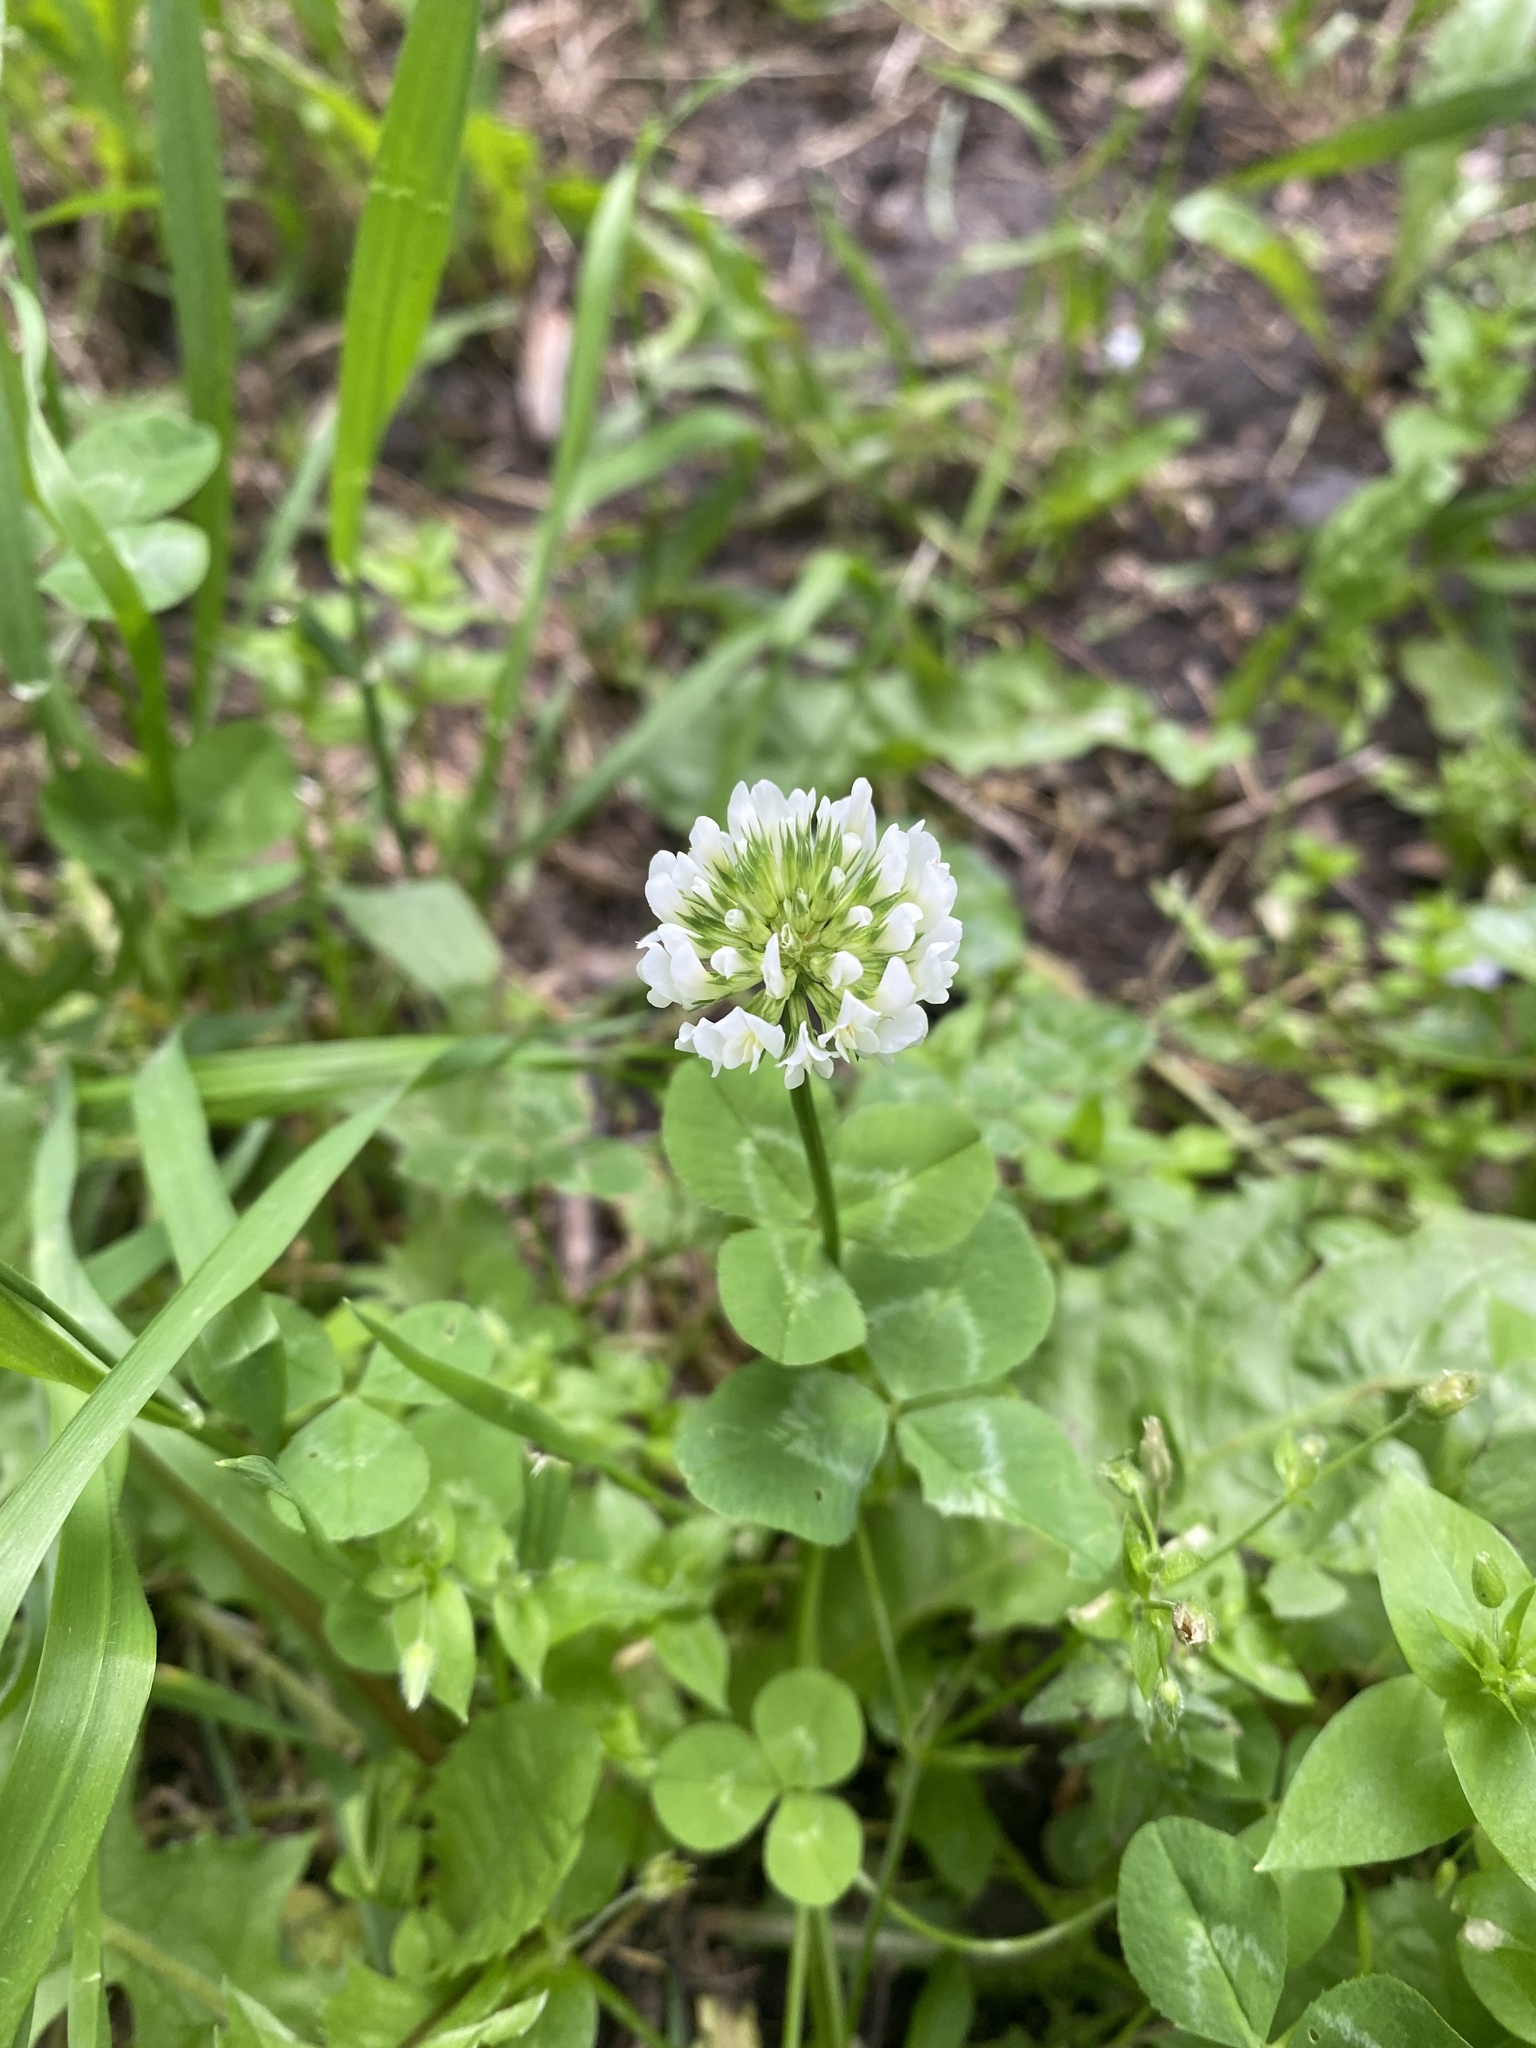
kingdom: Plantae
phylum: Tracheophyta
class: Magnoliopsida
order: Fabales
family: Fabaceae
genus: Trifolium
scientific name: Trifolium repens
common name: White clover
